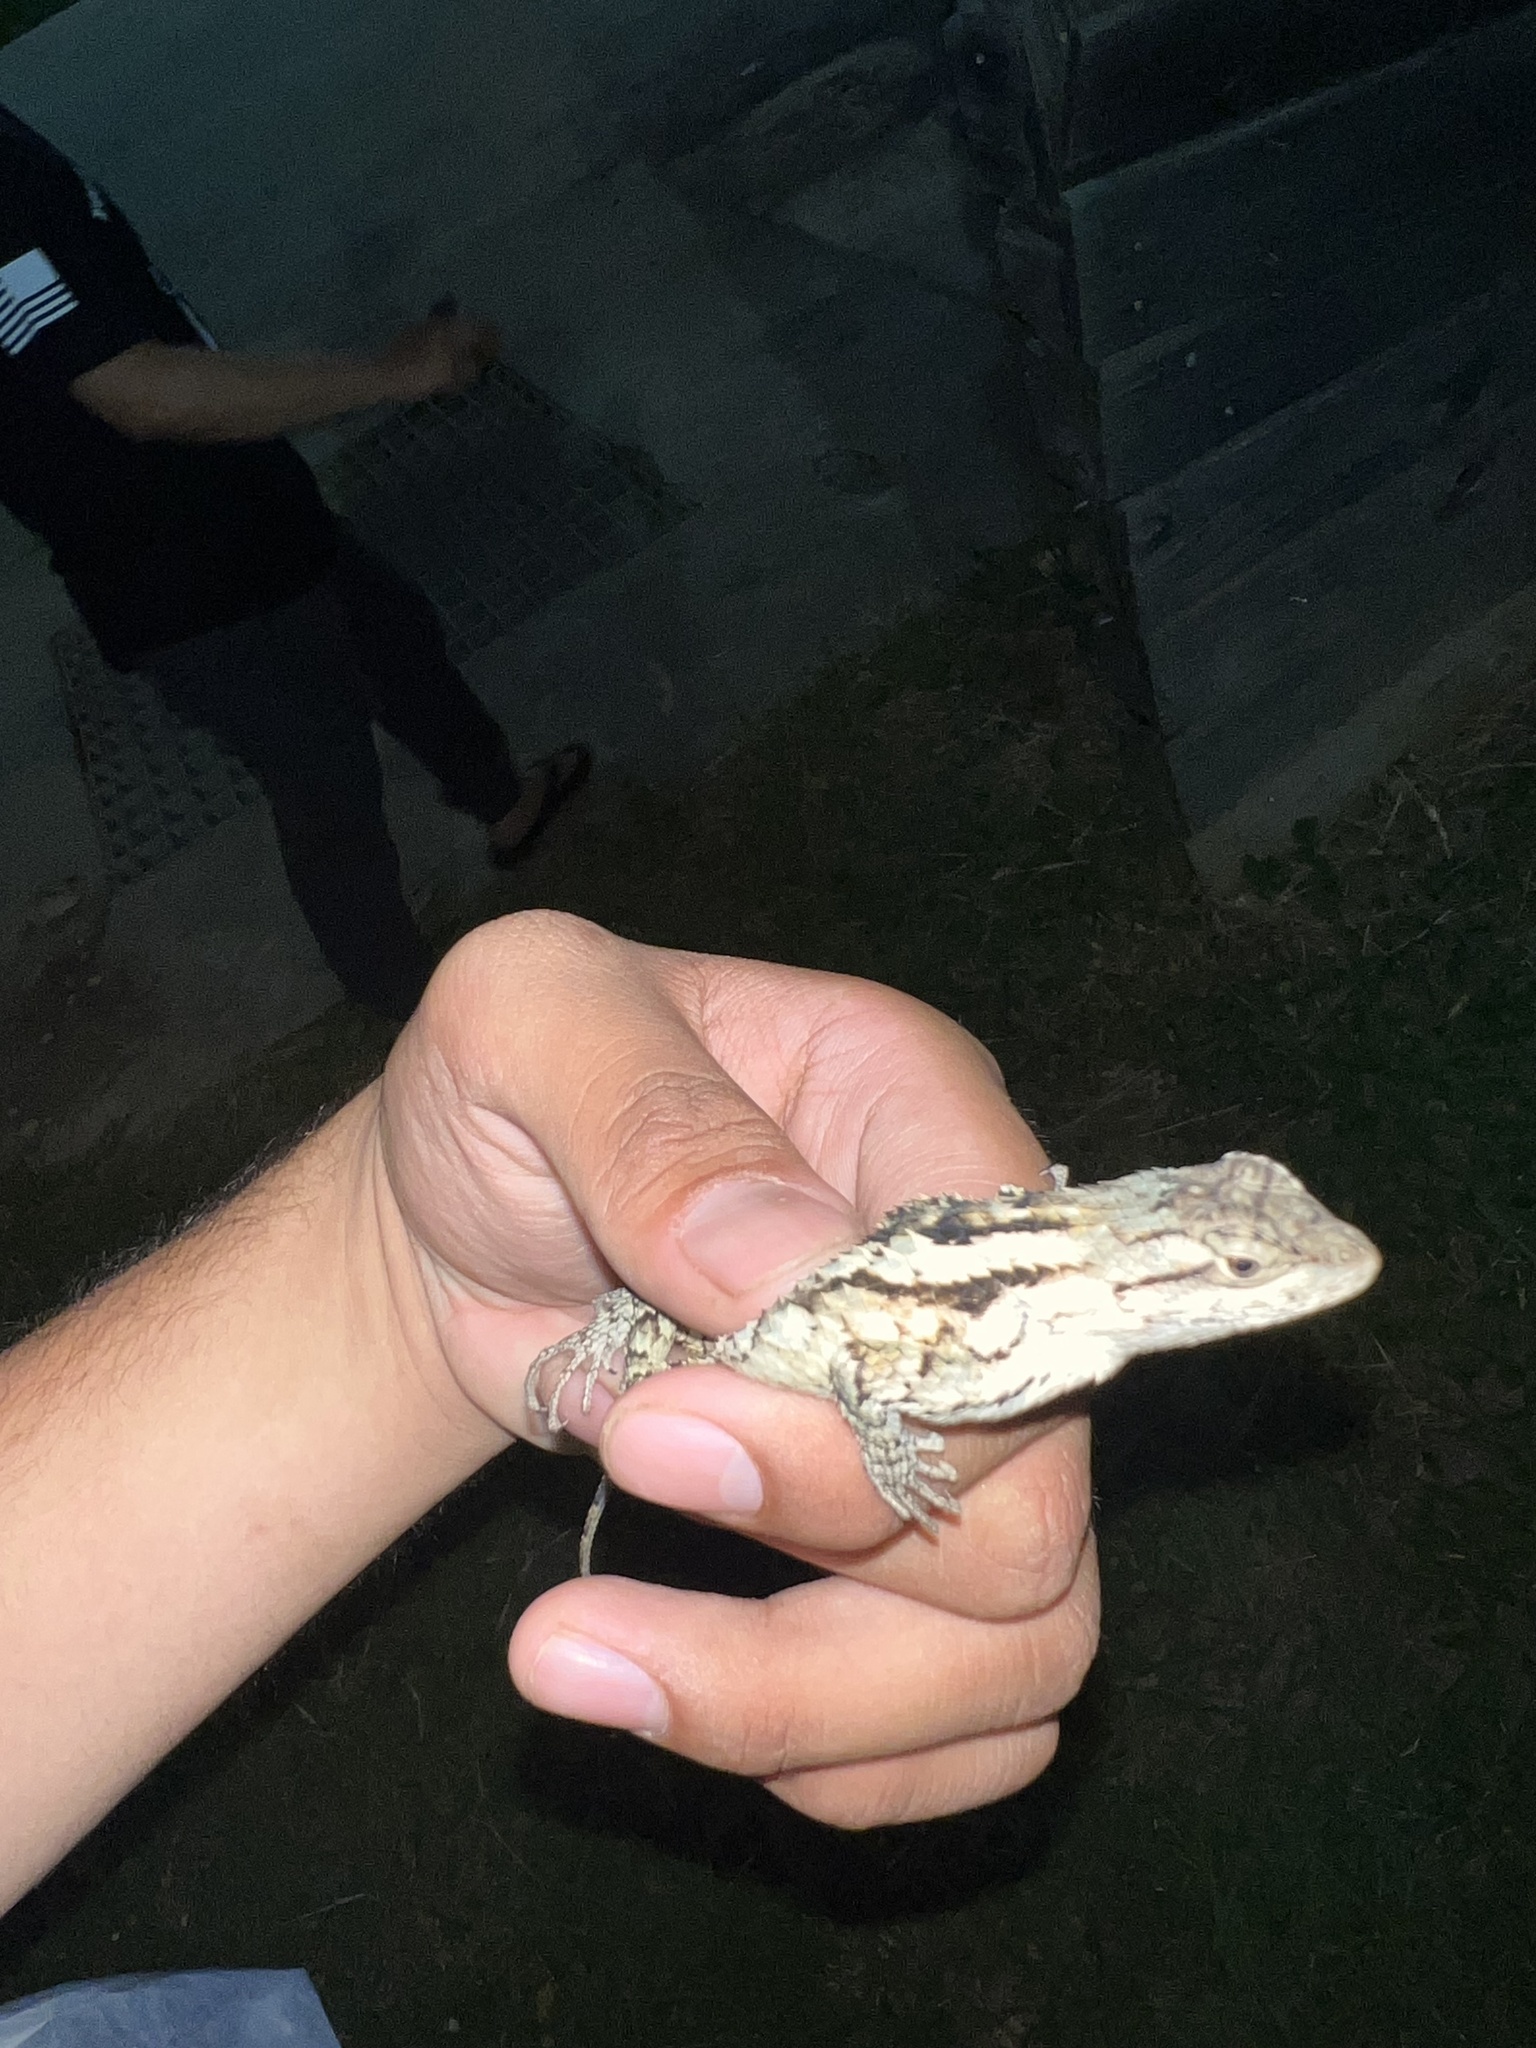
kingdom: Animalia
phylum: Chordata
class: Squamata
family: Phrynosomatidae
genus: Sceloporus
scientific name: Sceloporus olivaceus
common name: Texas spiny lizard
